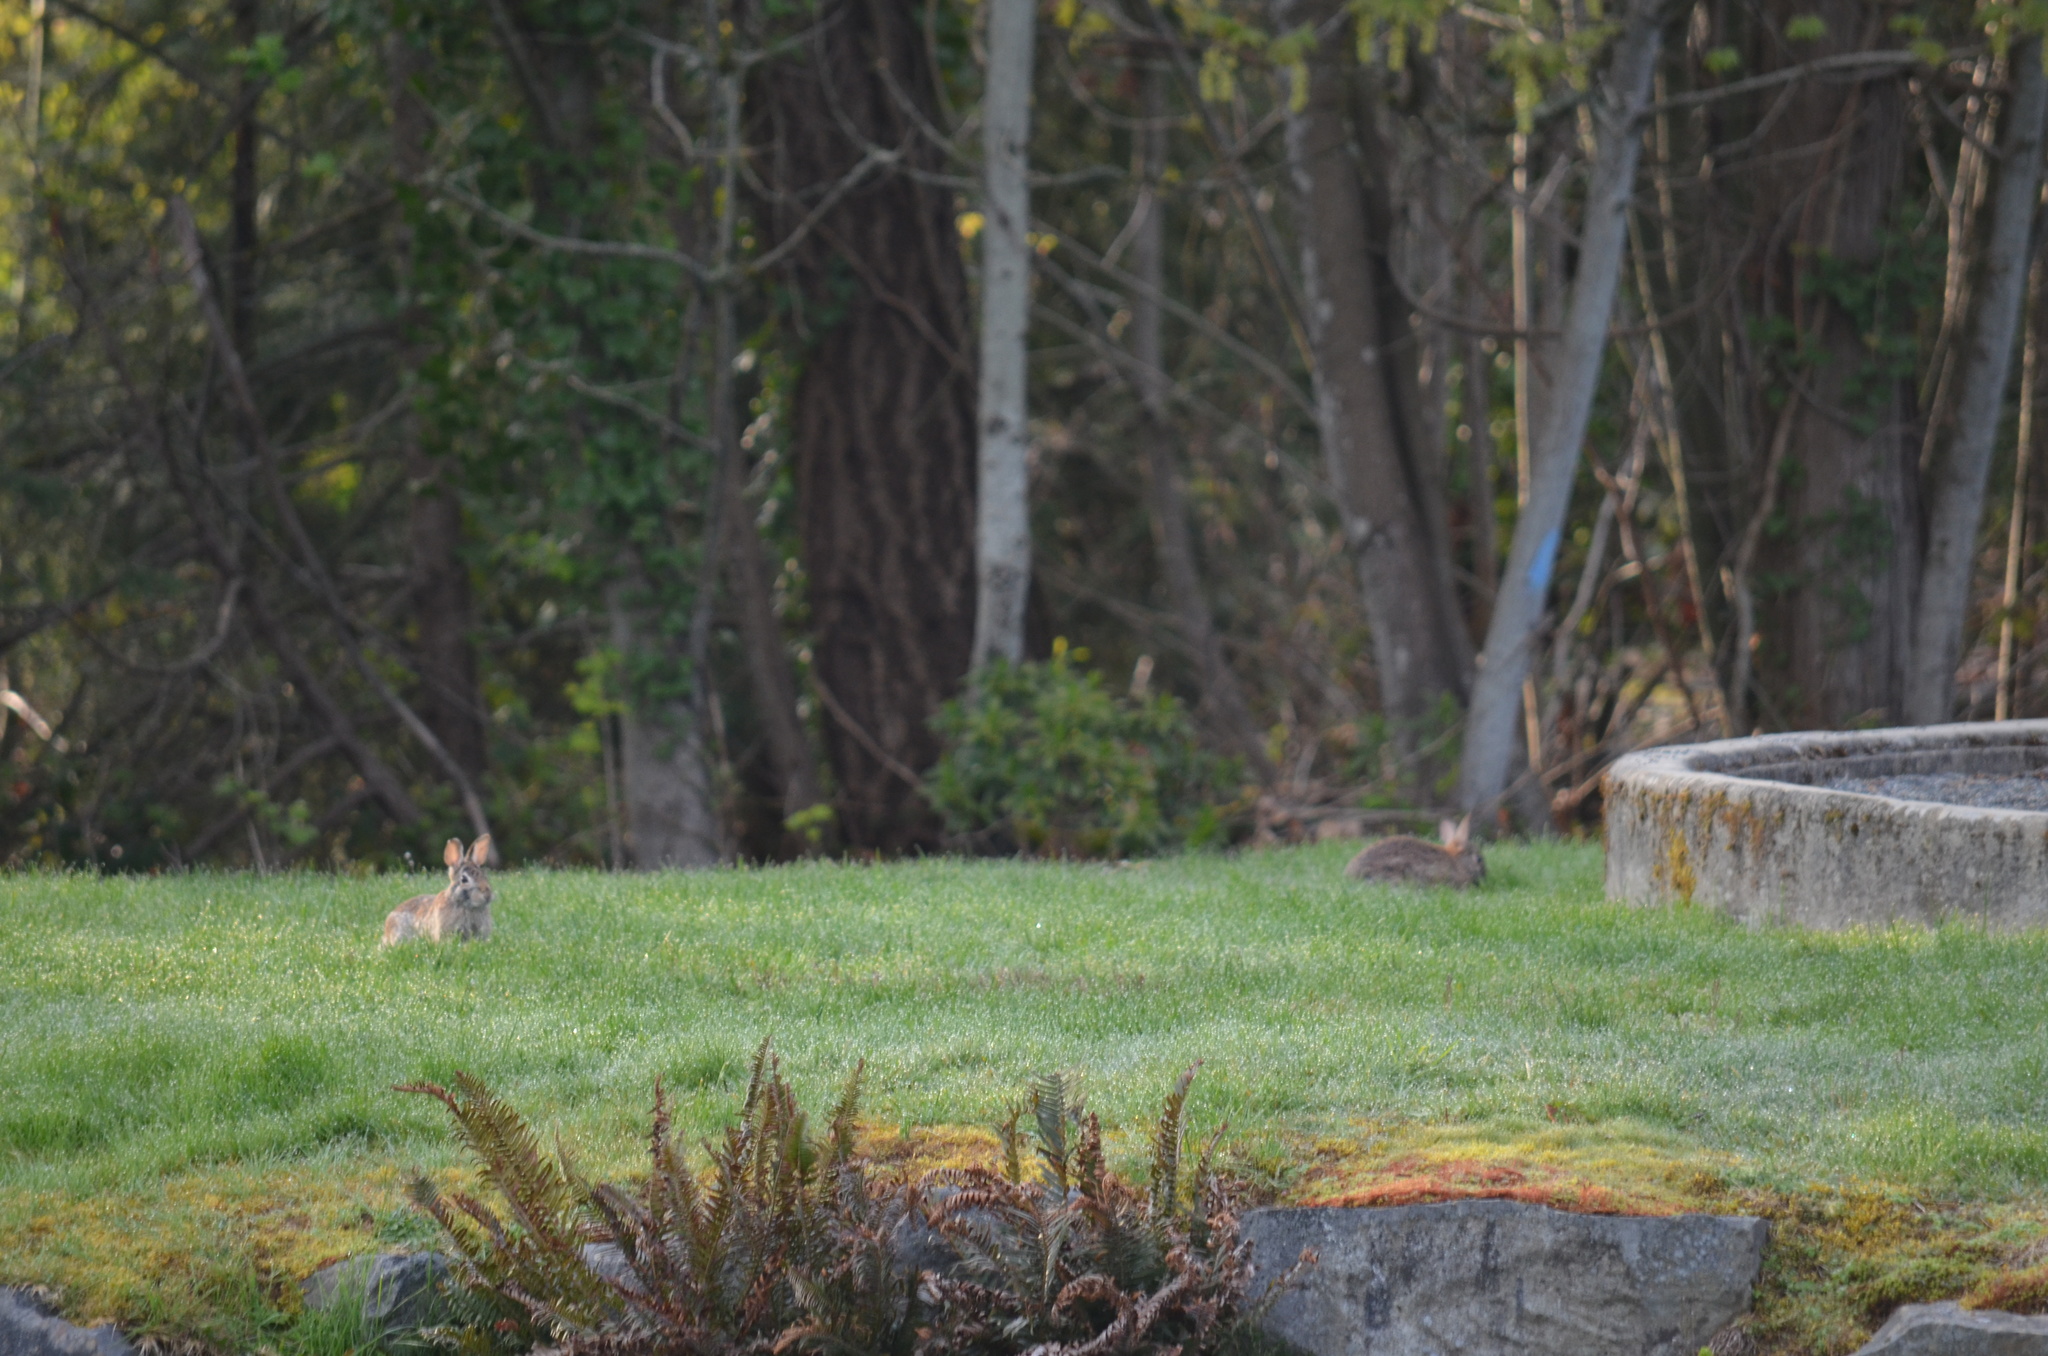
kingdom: Animalia
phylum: Chordata
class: Mammalia
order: Lagomorpha
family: Leporidae
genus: Sylvilagus
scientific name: Sylvilagus floridanus
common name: Eastern cottontail
